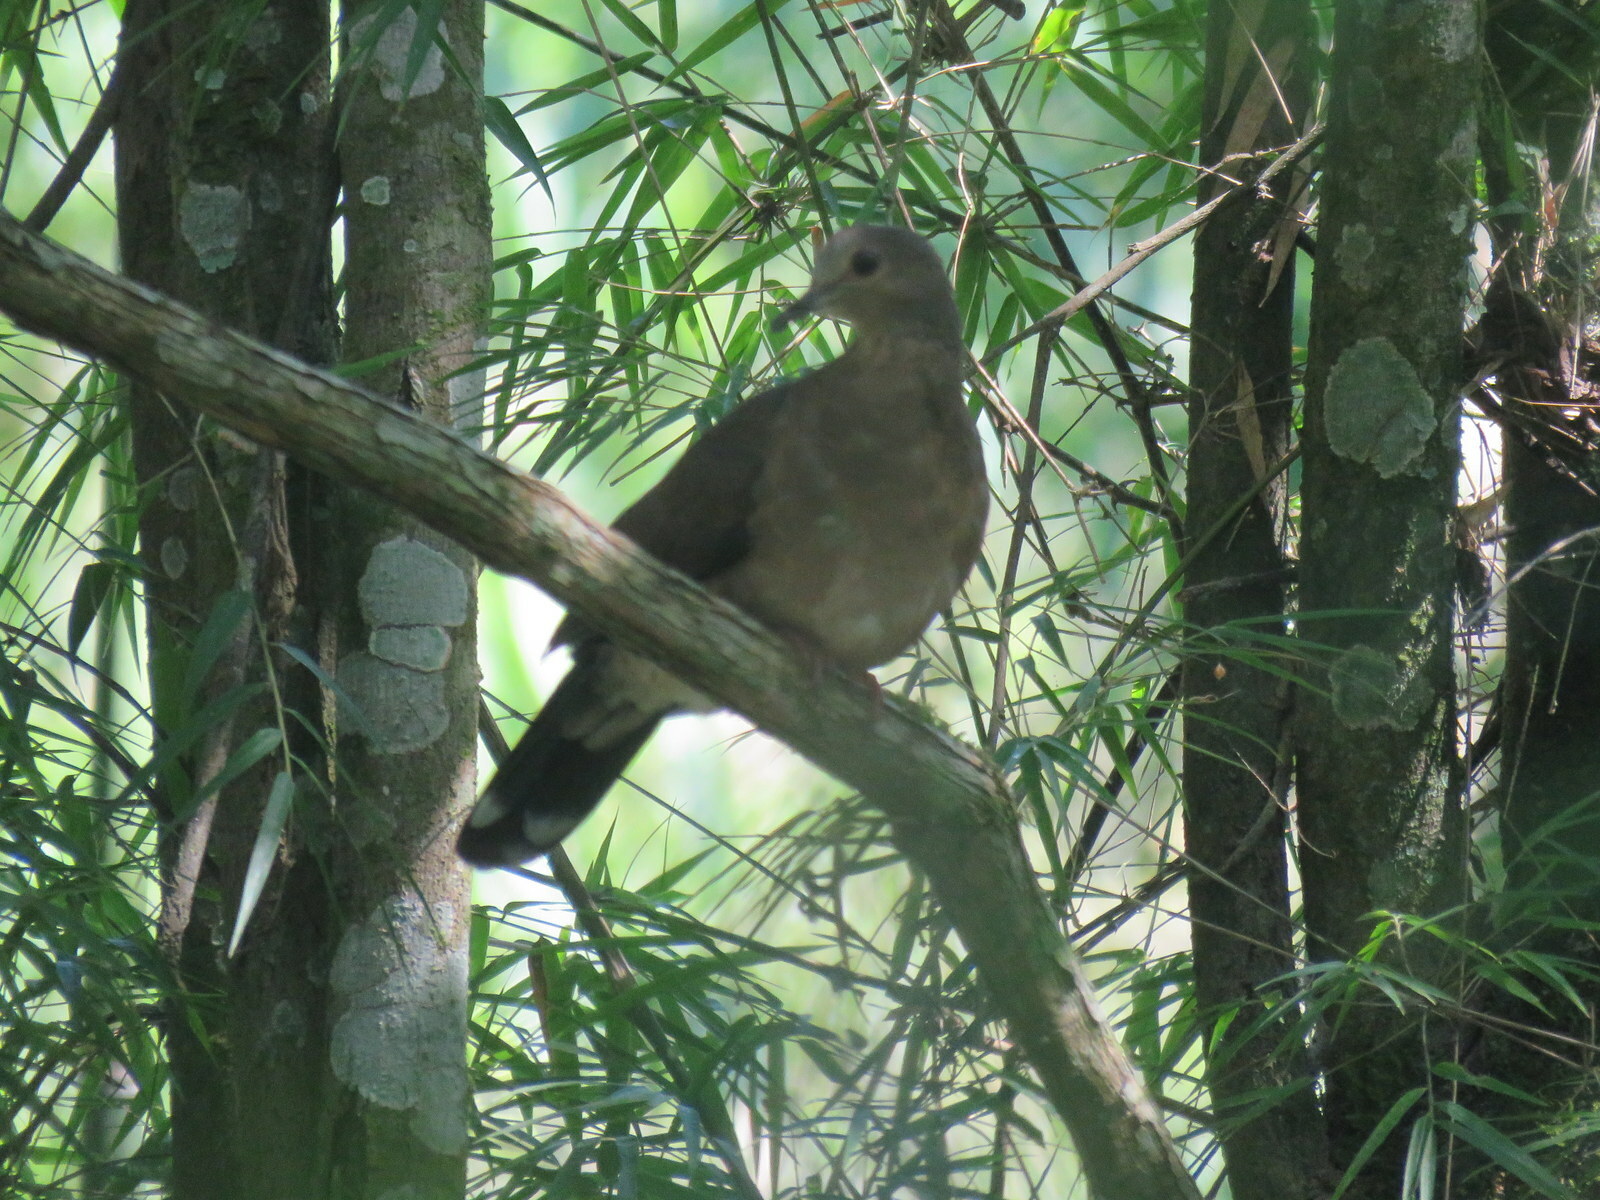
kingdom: Animalia
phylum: Chordata
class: Aves
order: Columbiformes
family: Columbidae
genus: Leptotila
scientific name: Leptotila verreauxi
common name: White-tipped dove
